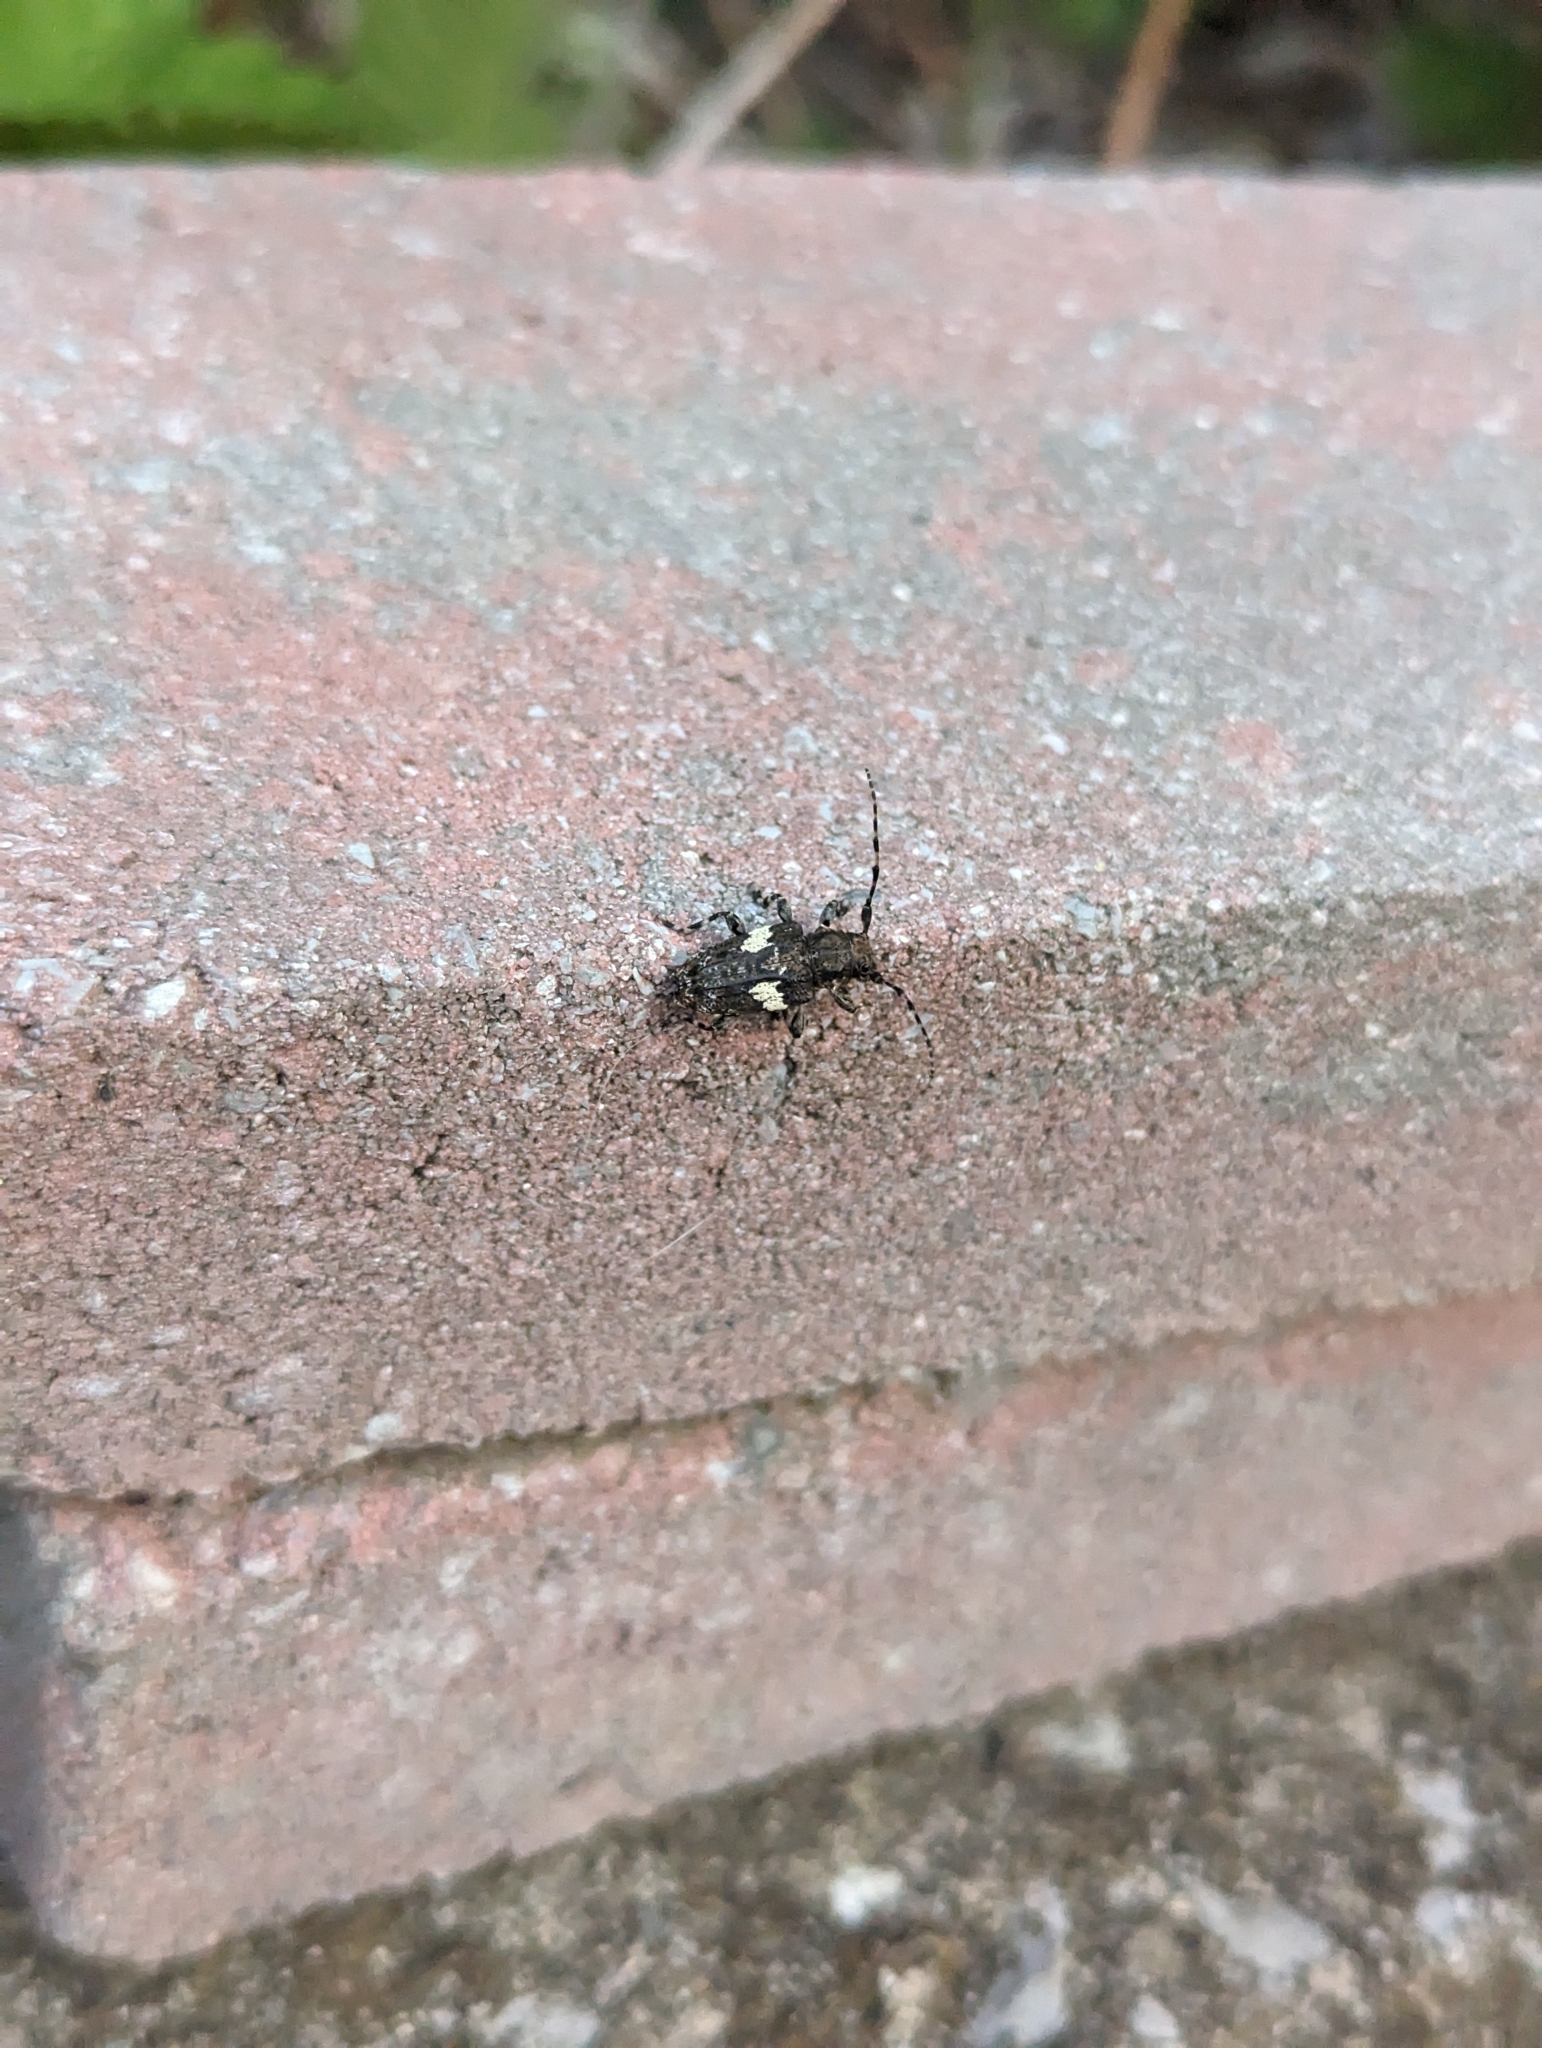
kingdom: Animalia
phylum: Arthropoda
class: Insecta
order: Coleoptera
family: Cerambycidae
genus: Acanthoderes
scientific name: Acanthoderes quadrigibba
